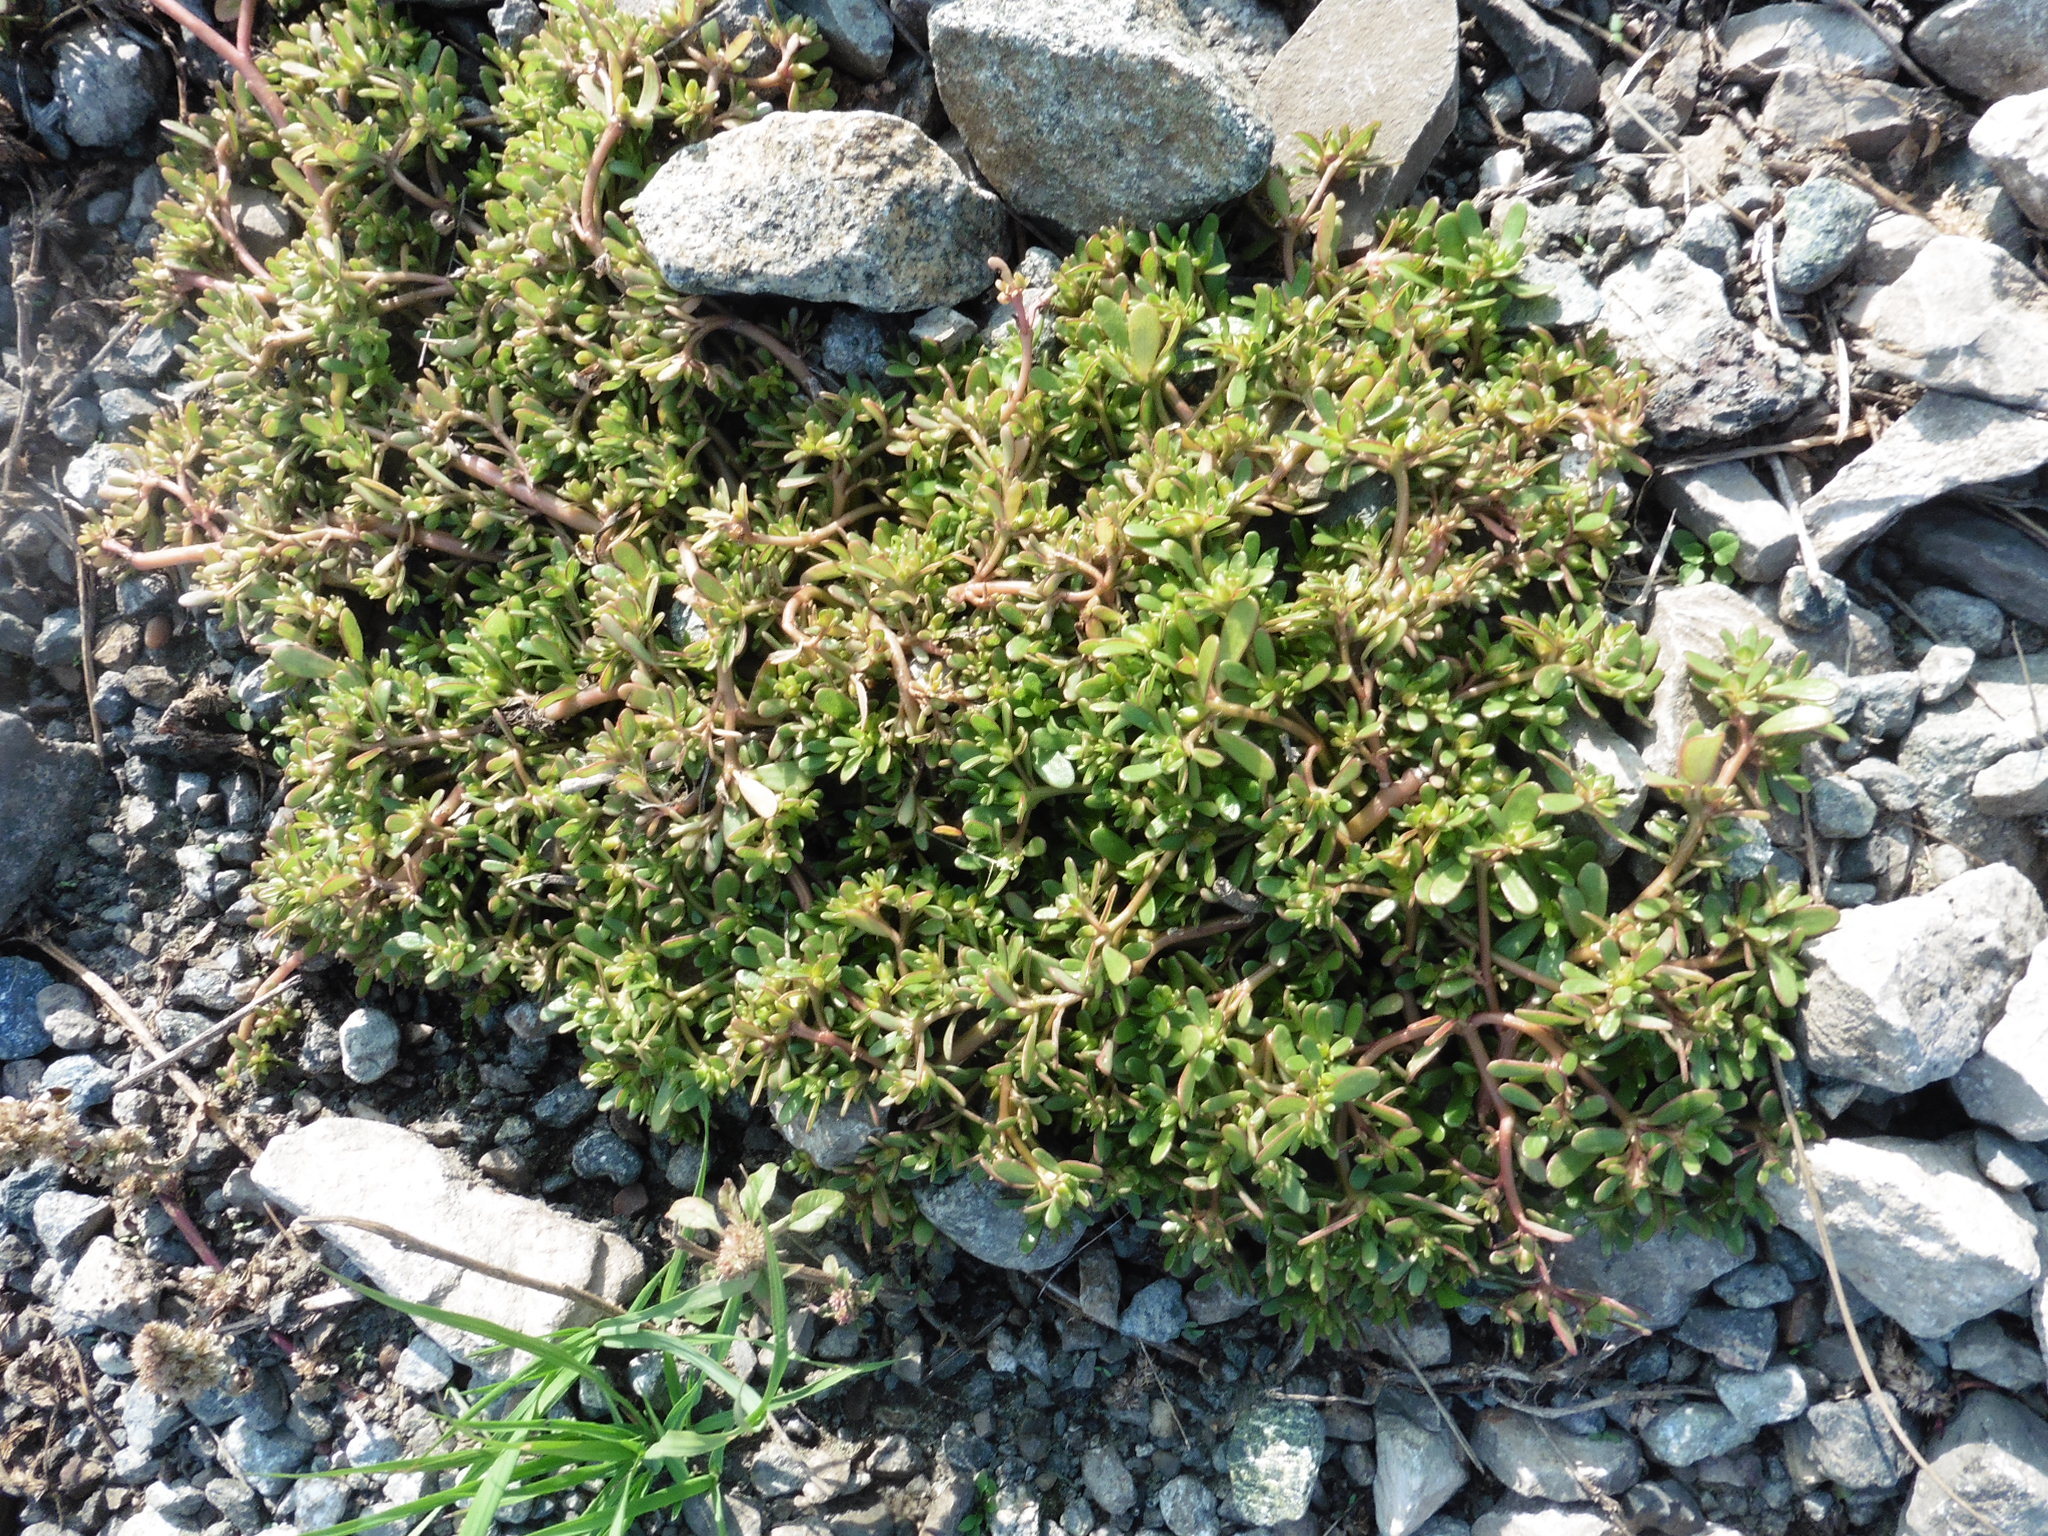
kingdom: Plantae
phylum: Tracheophyta
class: Magnoliopsida
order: Caryophyllales
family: Portulacaceae
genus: Portulaca
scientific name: Portulaca oleracea
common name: Common purslane
